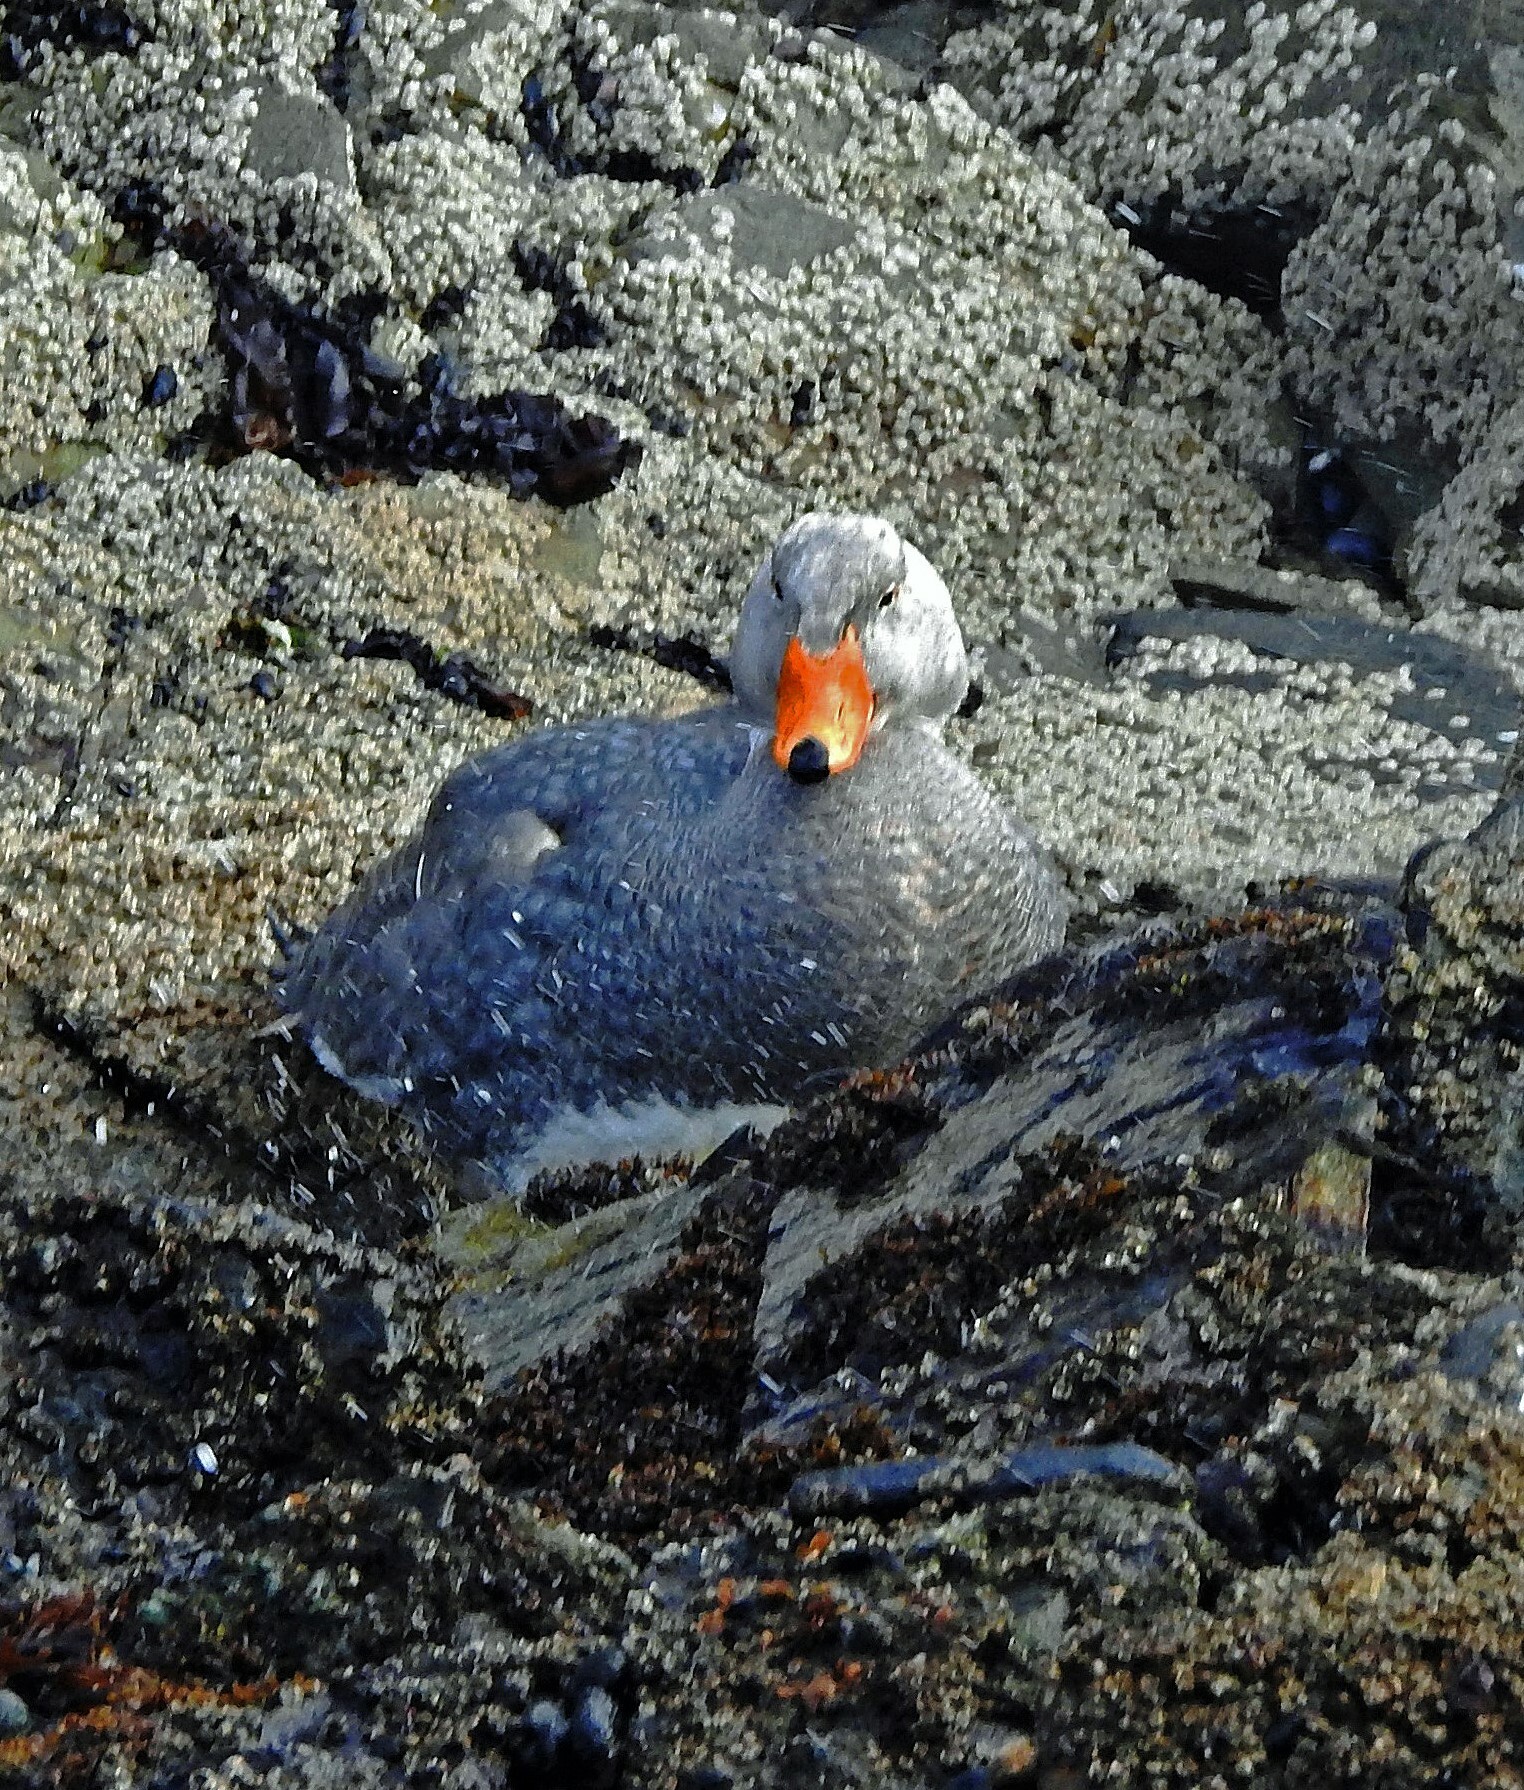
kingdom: Animalia
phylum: Chordata
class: Aves
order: Anseriformes
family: Anatidae
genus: Tachyeres
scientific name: Tachyeres pteneres
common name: Fuegian steamer duck
